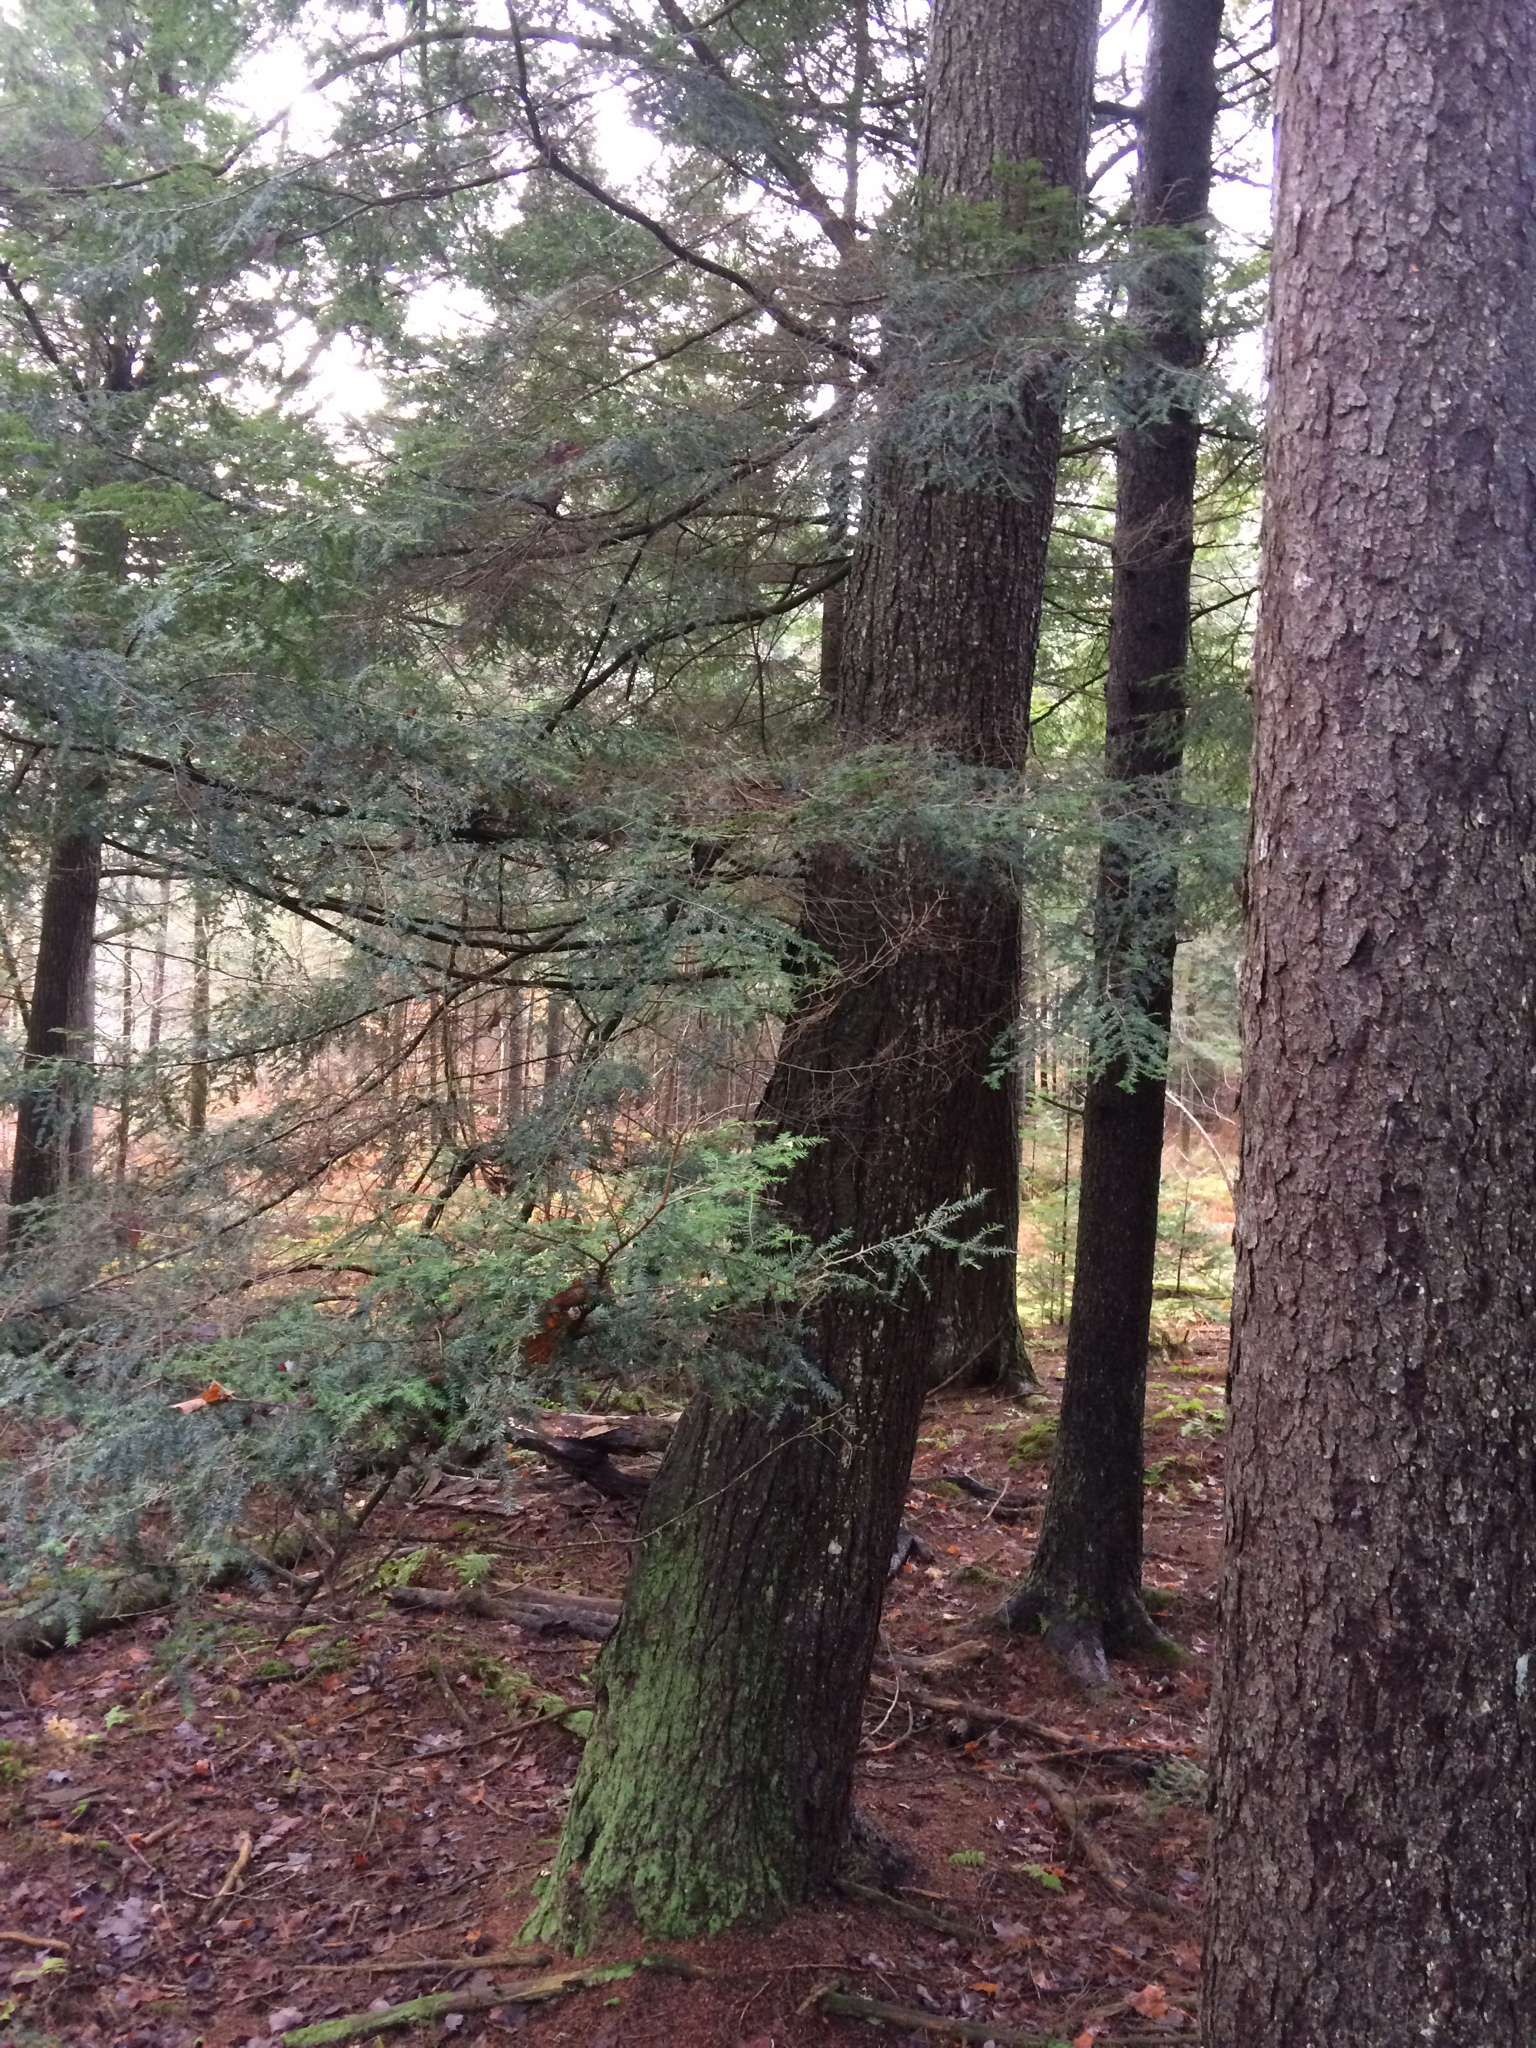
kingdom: Plantae
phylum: Tracheophyta
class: Pinopsida
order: Pinales
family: Pinaceae
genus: Tsuga
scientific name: Tsuga canadensis
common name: Eastern hemlock
